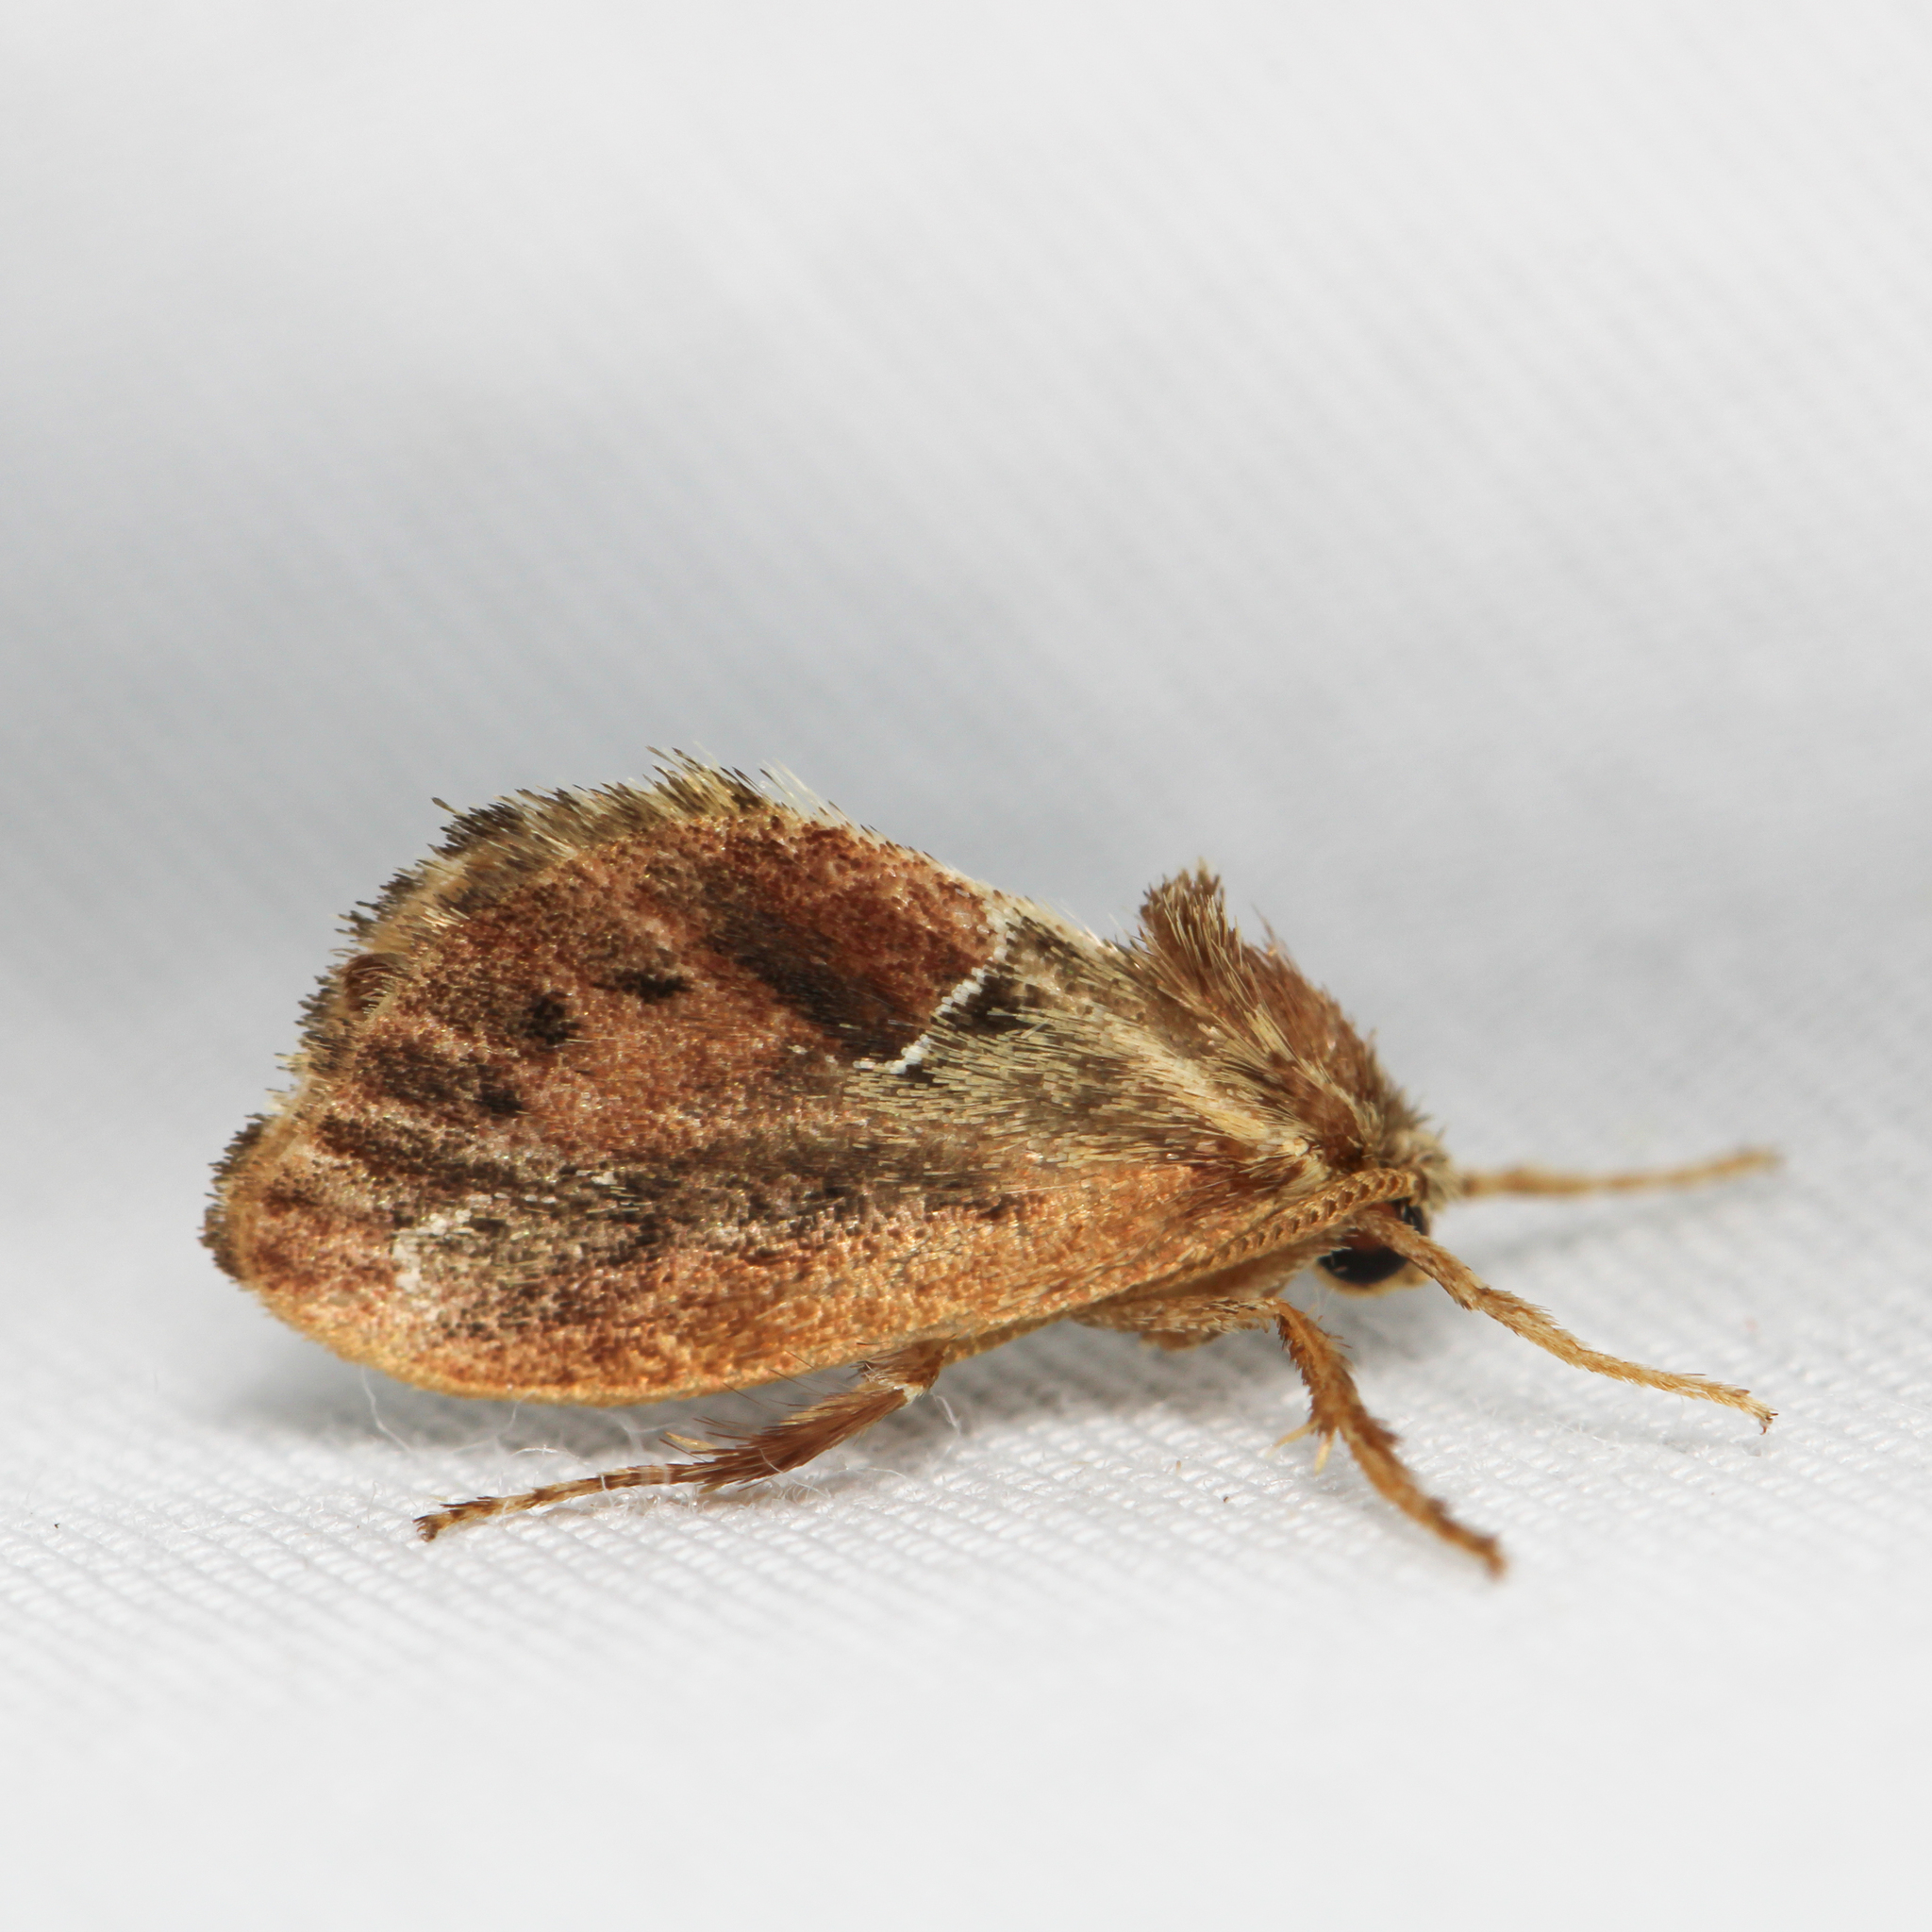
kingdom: Animalia
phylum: Arthropoda
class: Insecta
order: Lepidoptera
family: Limacodidae
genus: Adoneta
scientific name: Adoneta spinuloides
